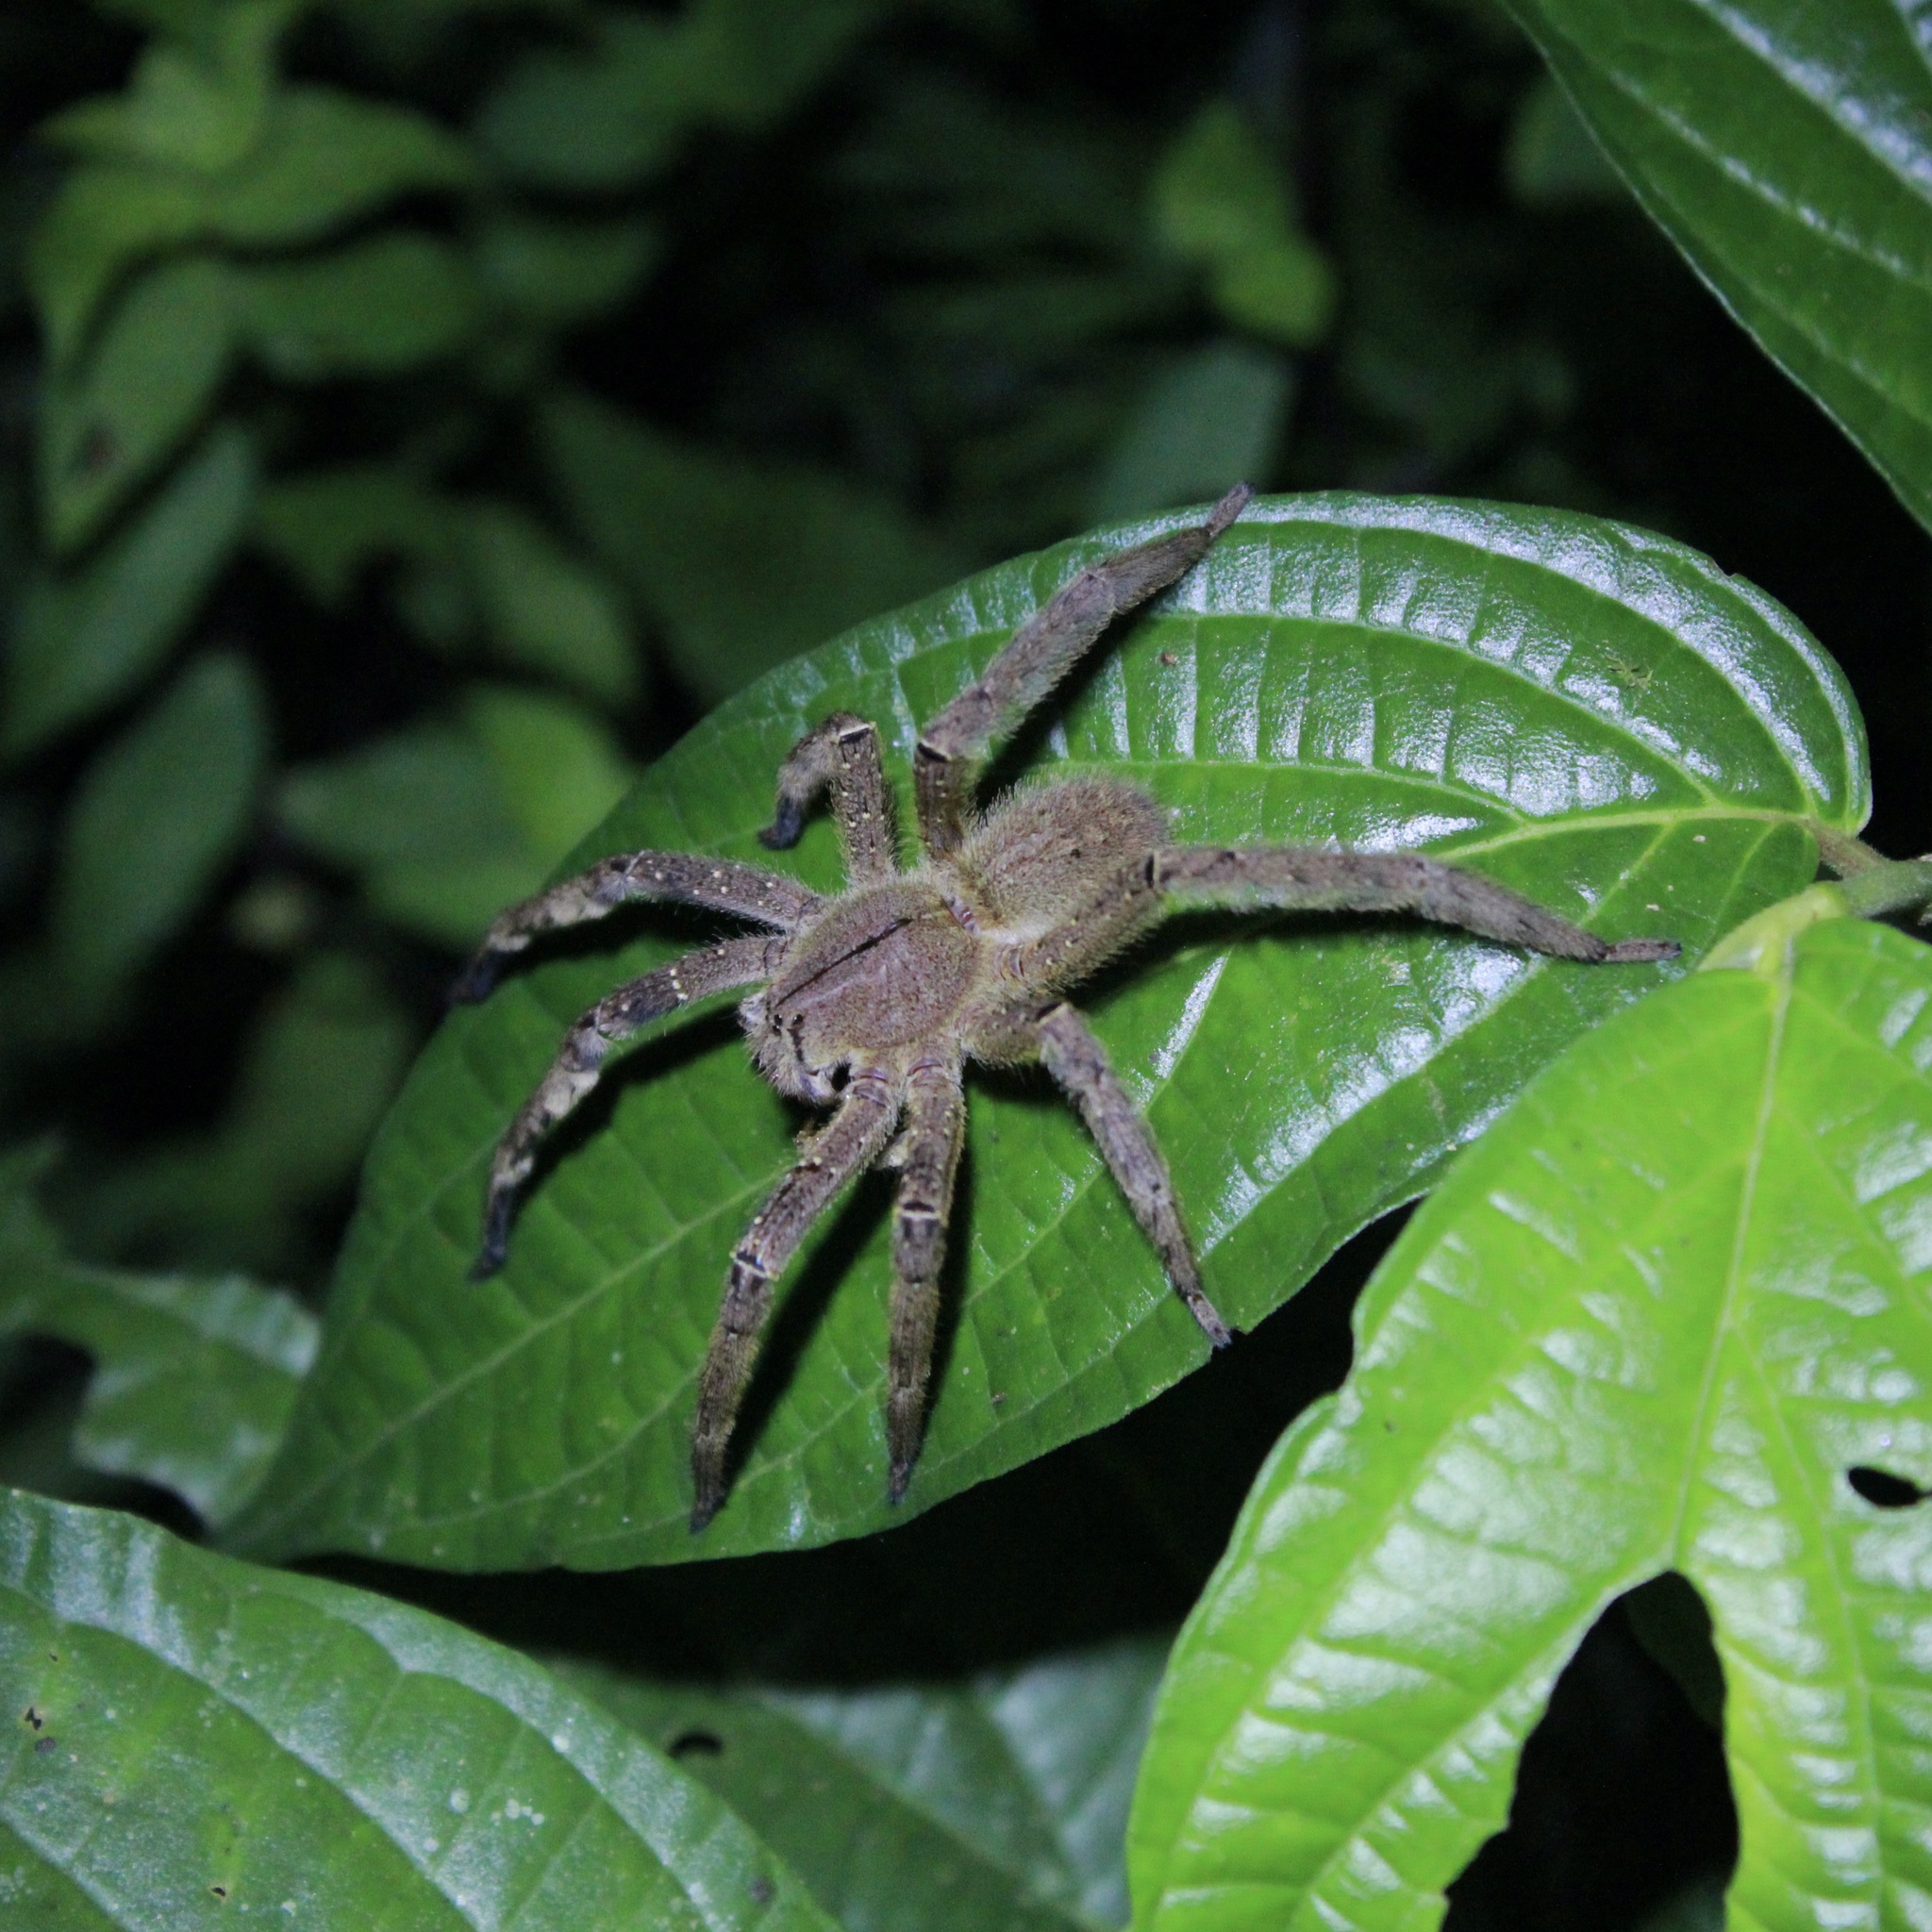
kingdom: Animalia
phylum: Arthropoda
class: Arachnida
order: Araneae
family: Ctenidae
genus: Phoneutria
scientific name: Phoneutria
